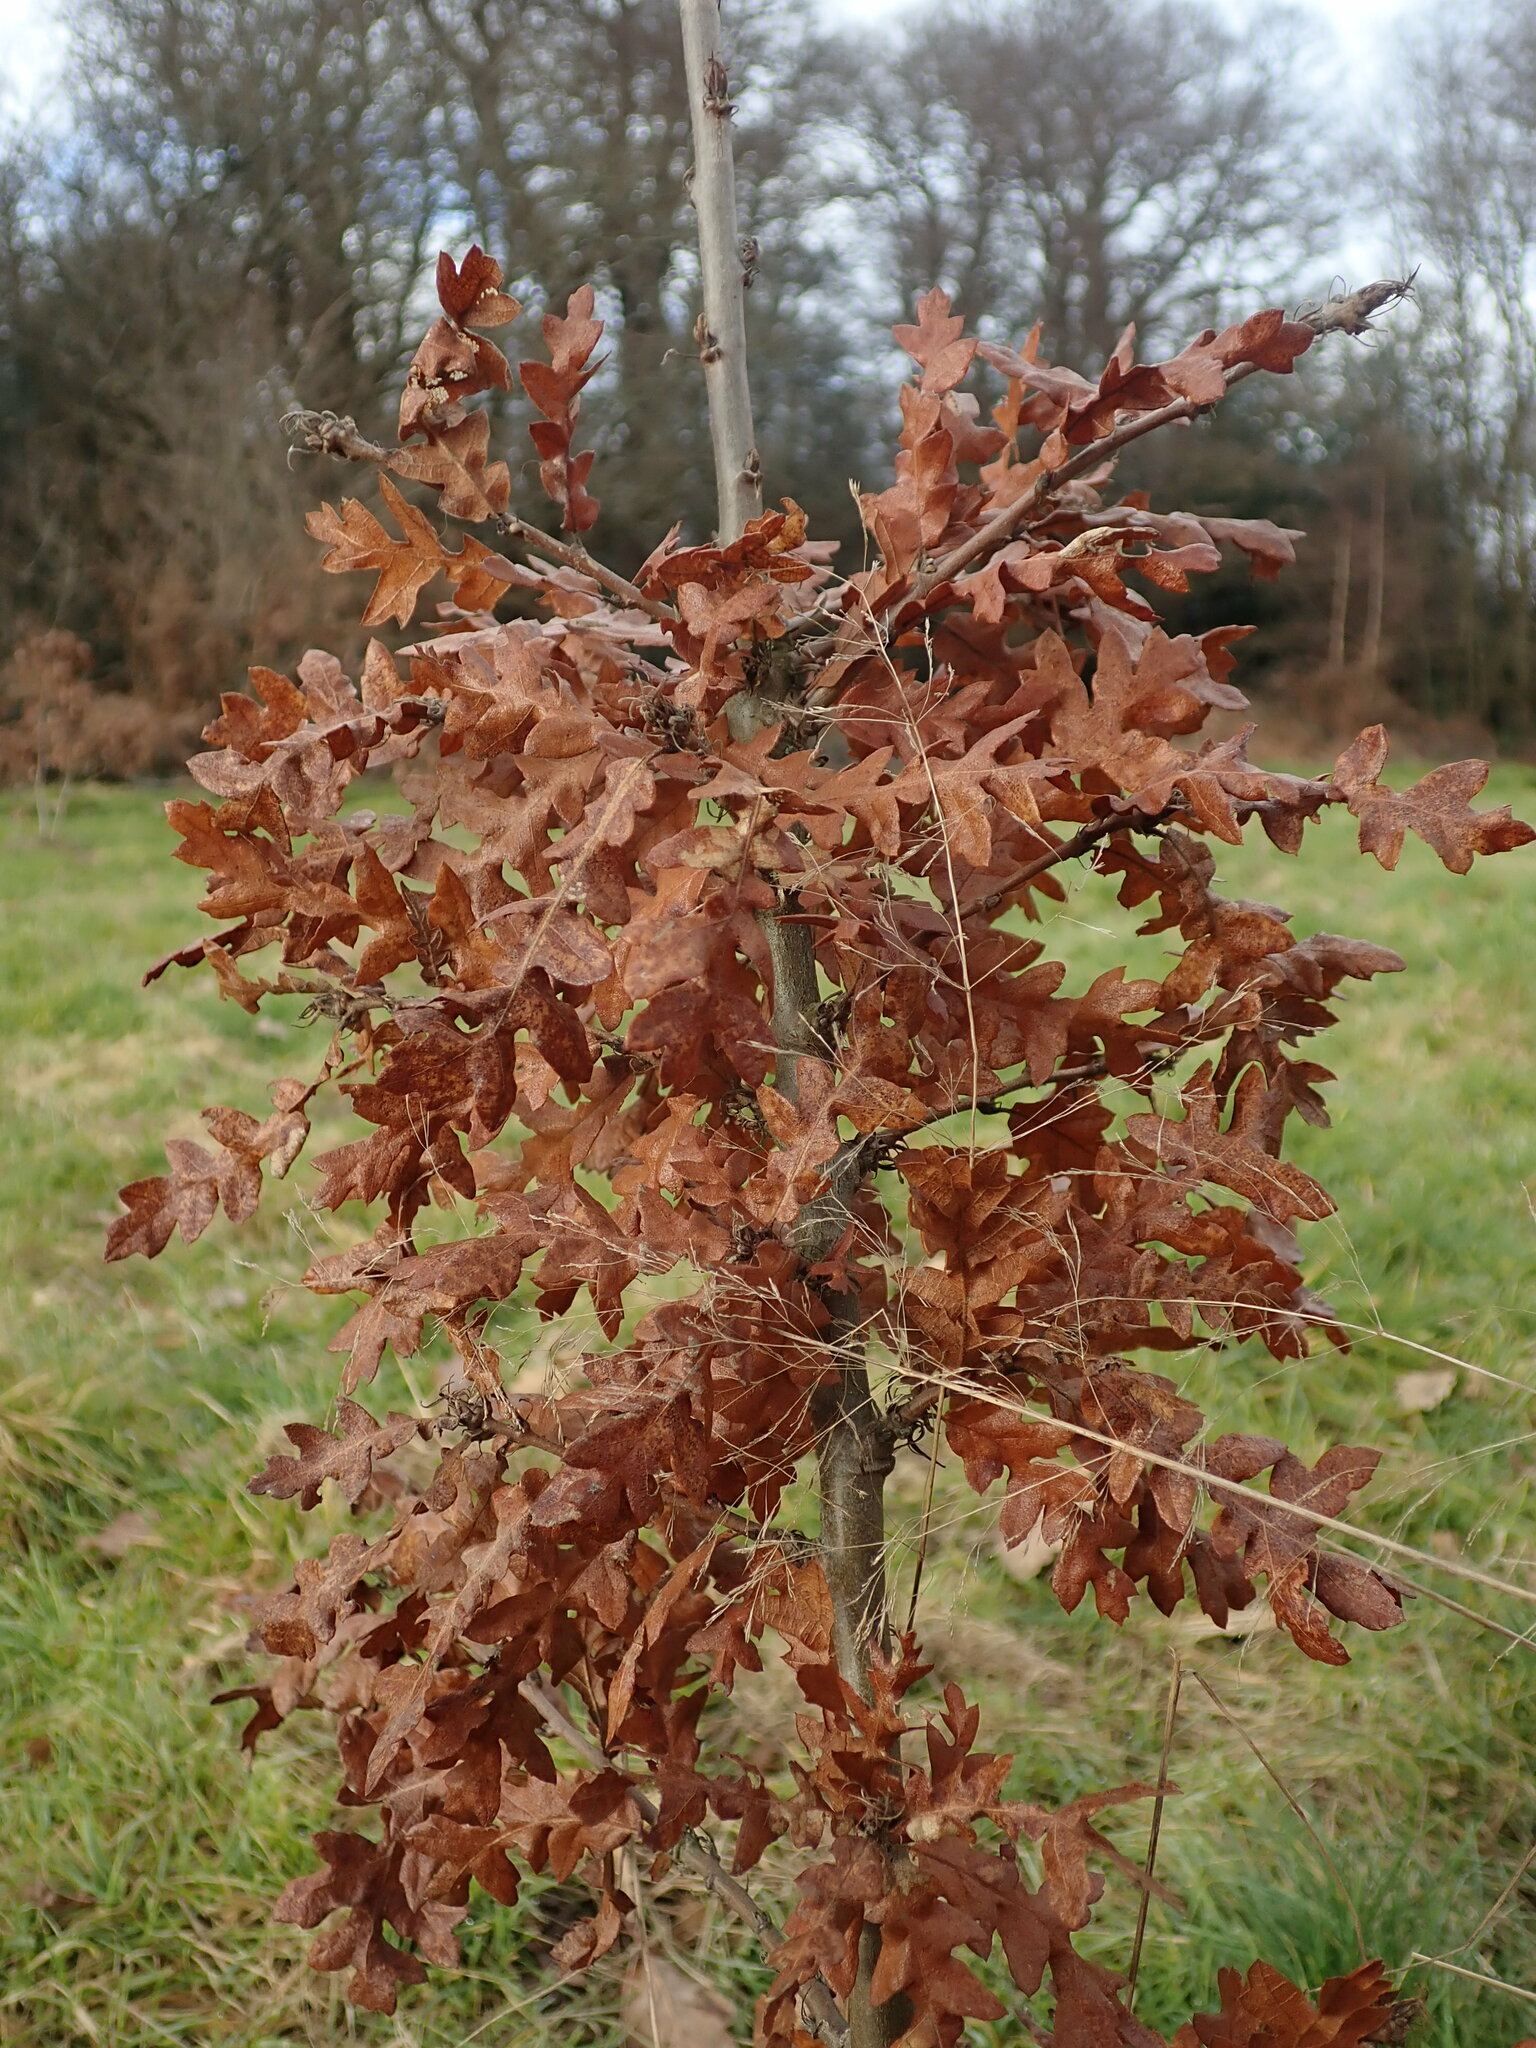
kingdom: Plantae
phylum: Tracheophyta
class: Magnoliopsida
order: Fagales
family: Fagaceae
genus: Quercus
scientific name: Quercus cerris
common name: Turkey oak
